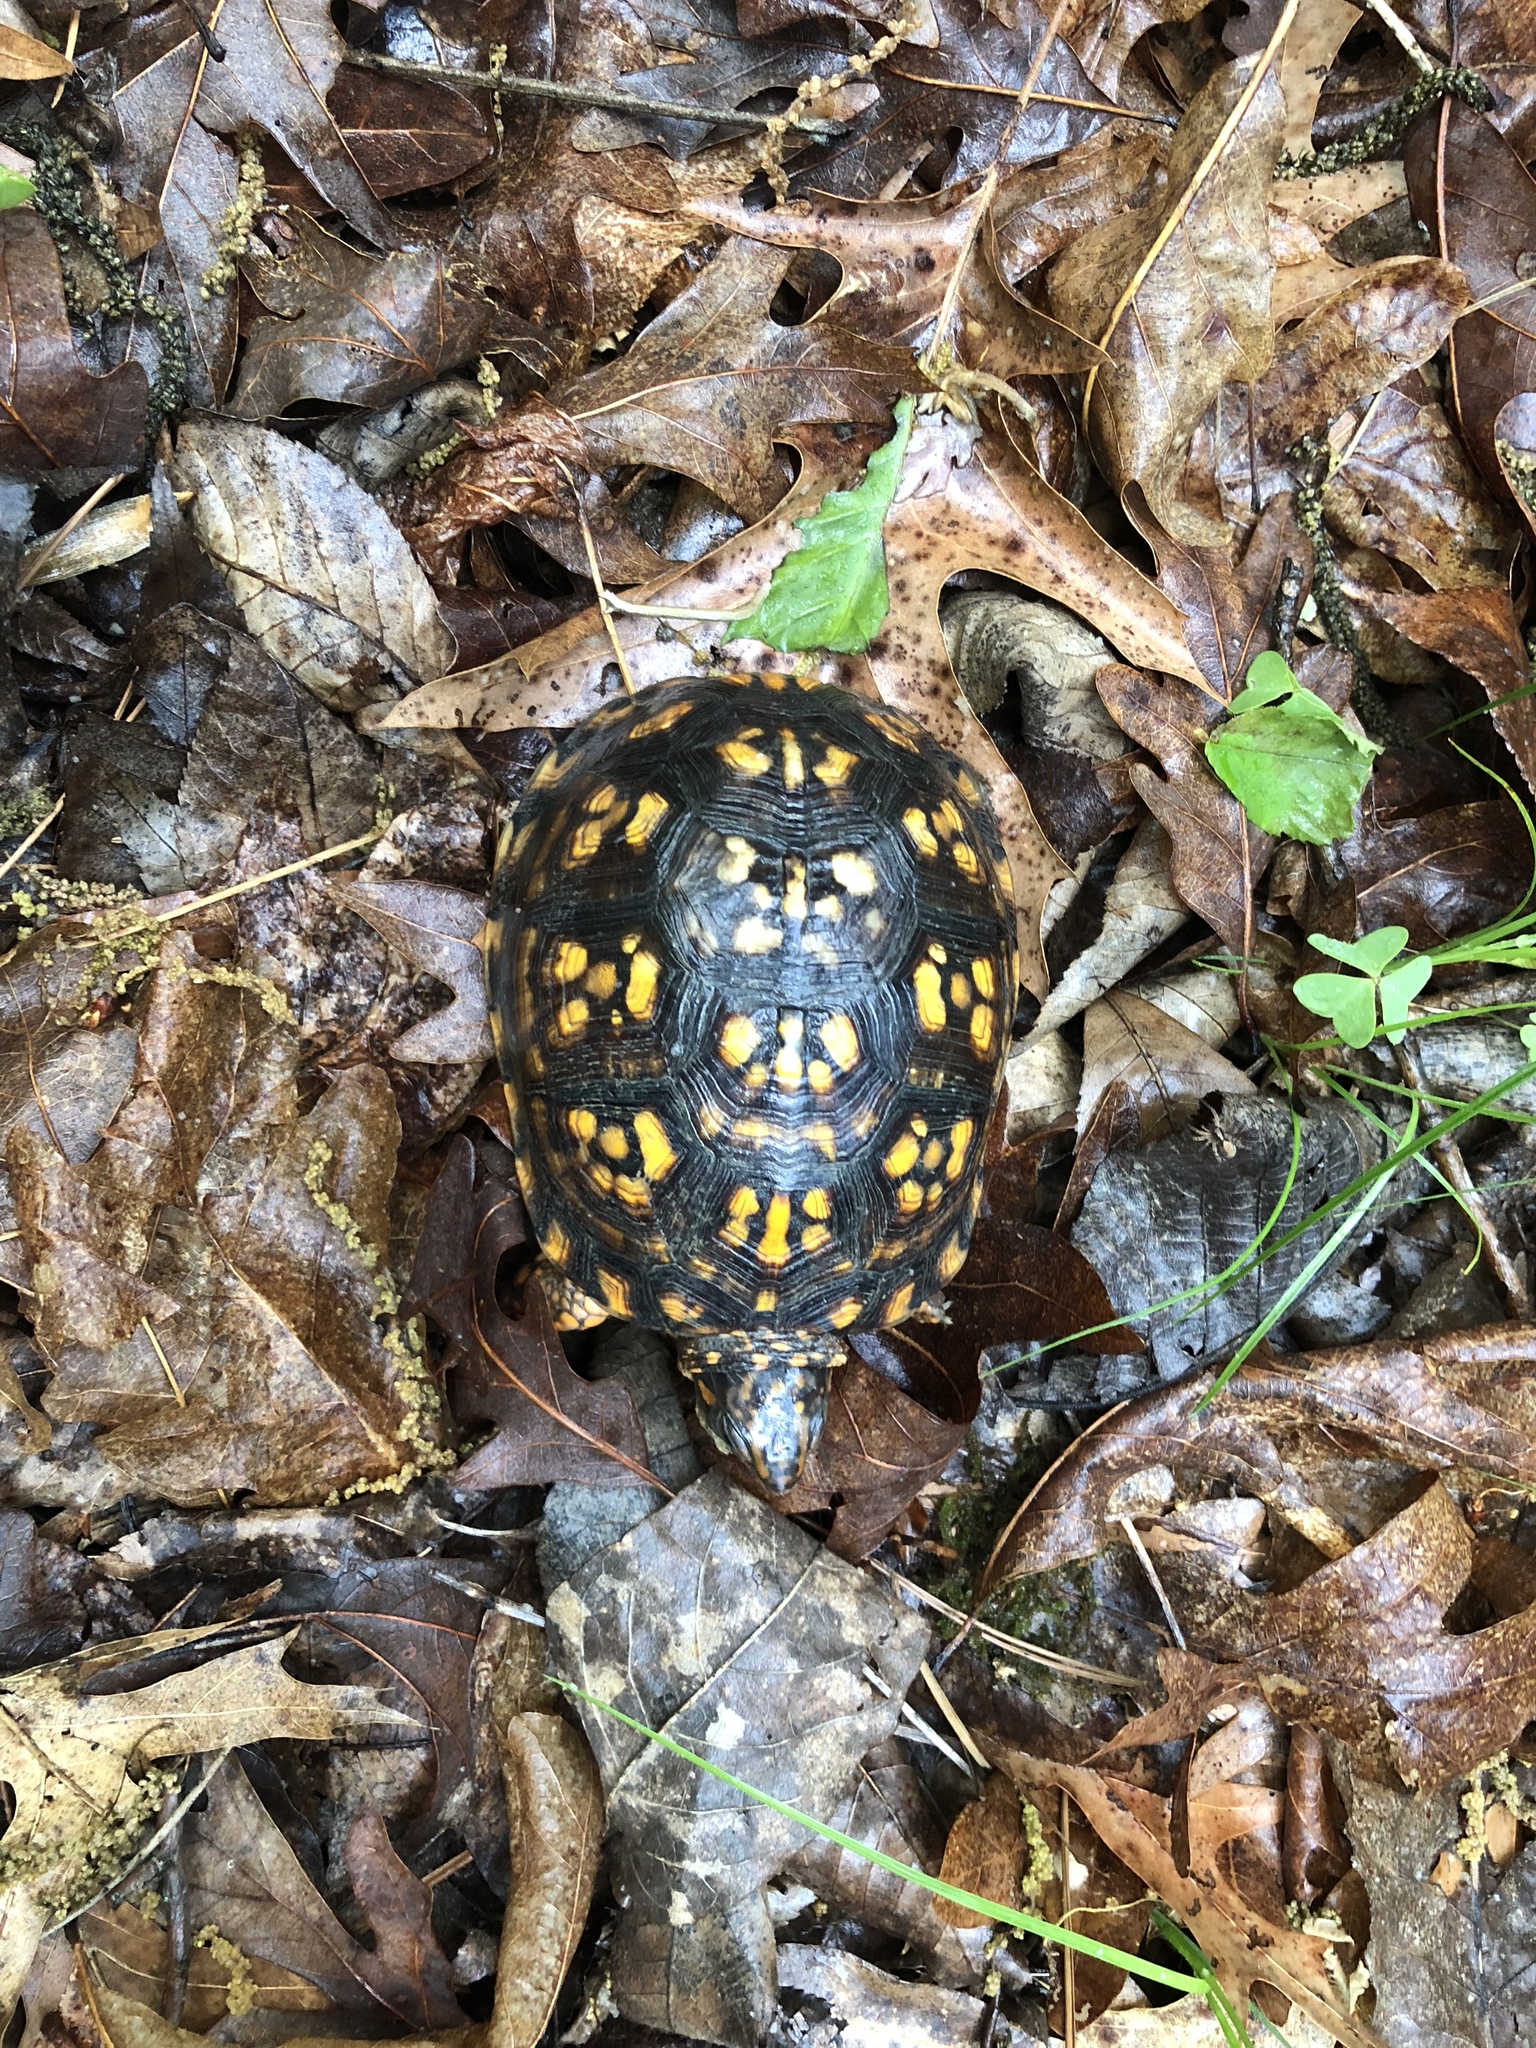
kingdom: Animalia
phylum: Chordata
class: Testudines
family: Emydidae
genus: Terrapene
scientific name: Terrapene carolina
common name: Common box turtle
